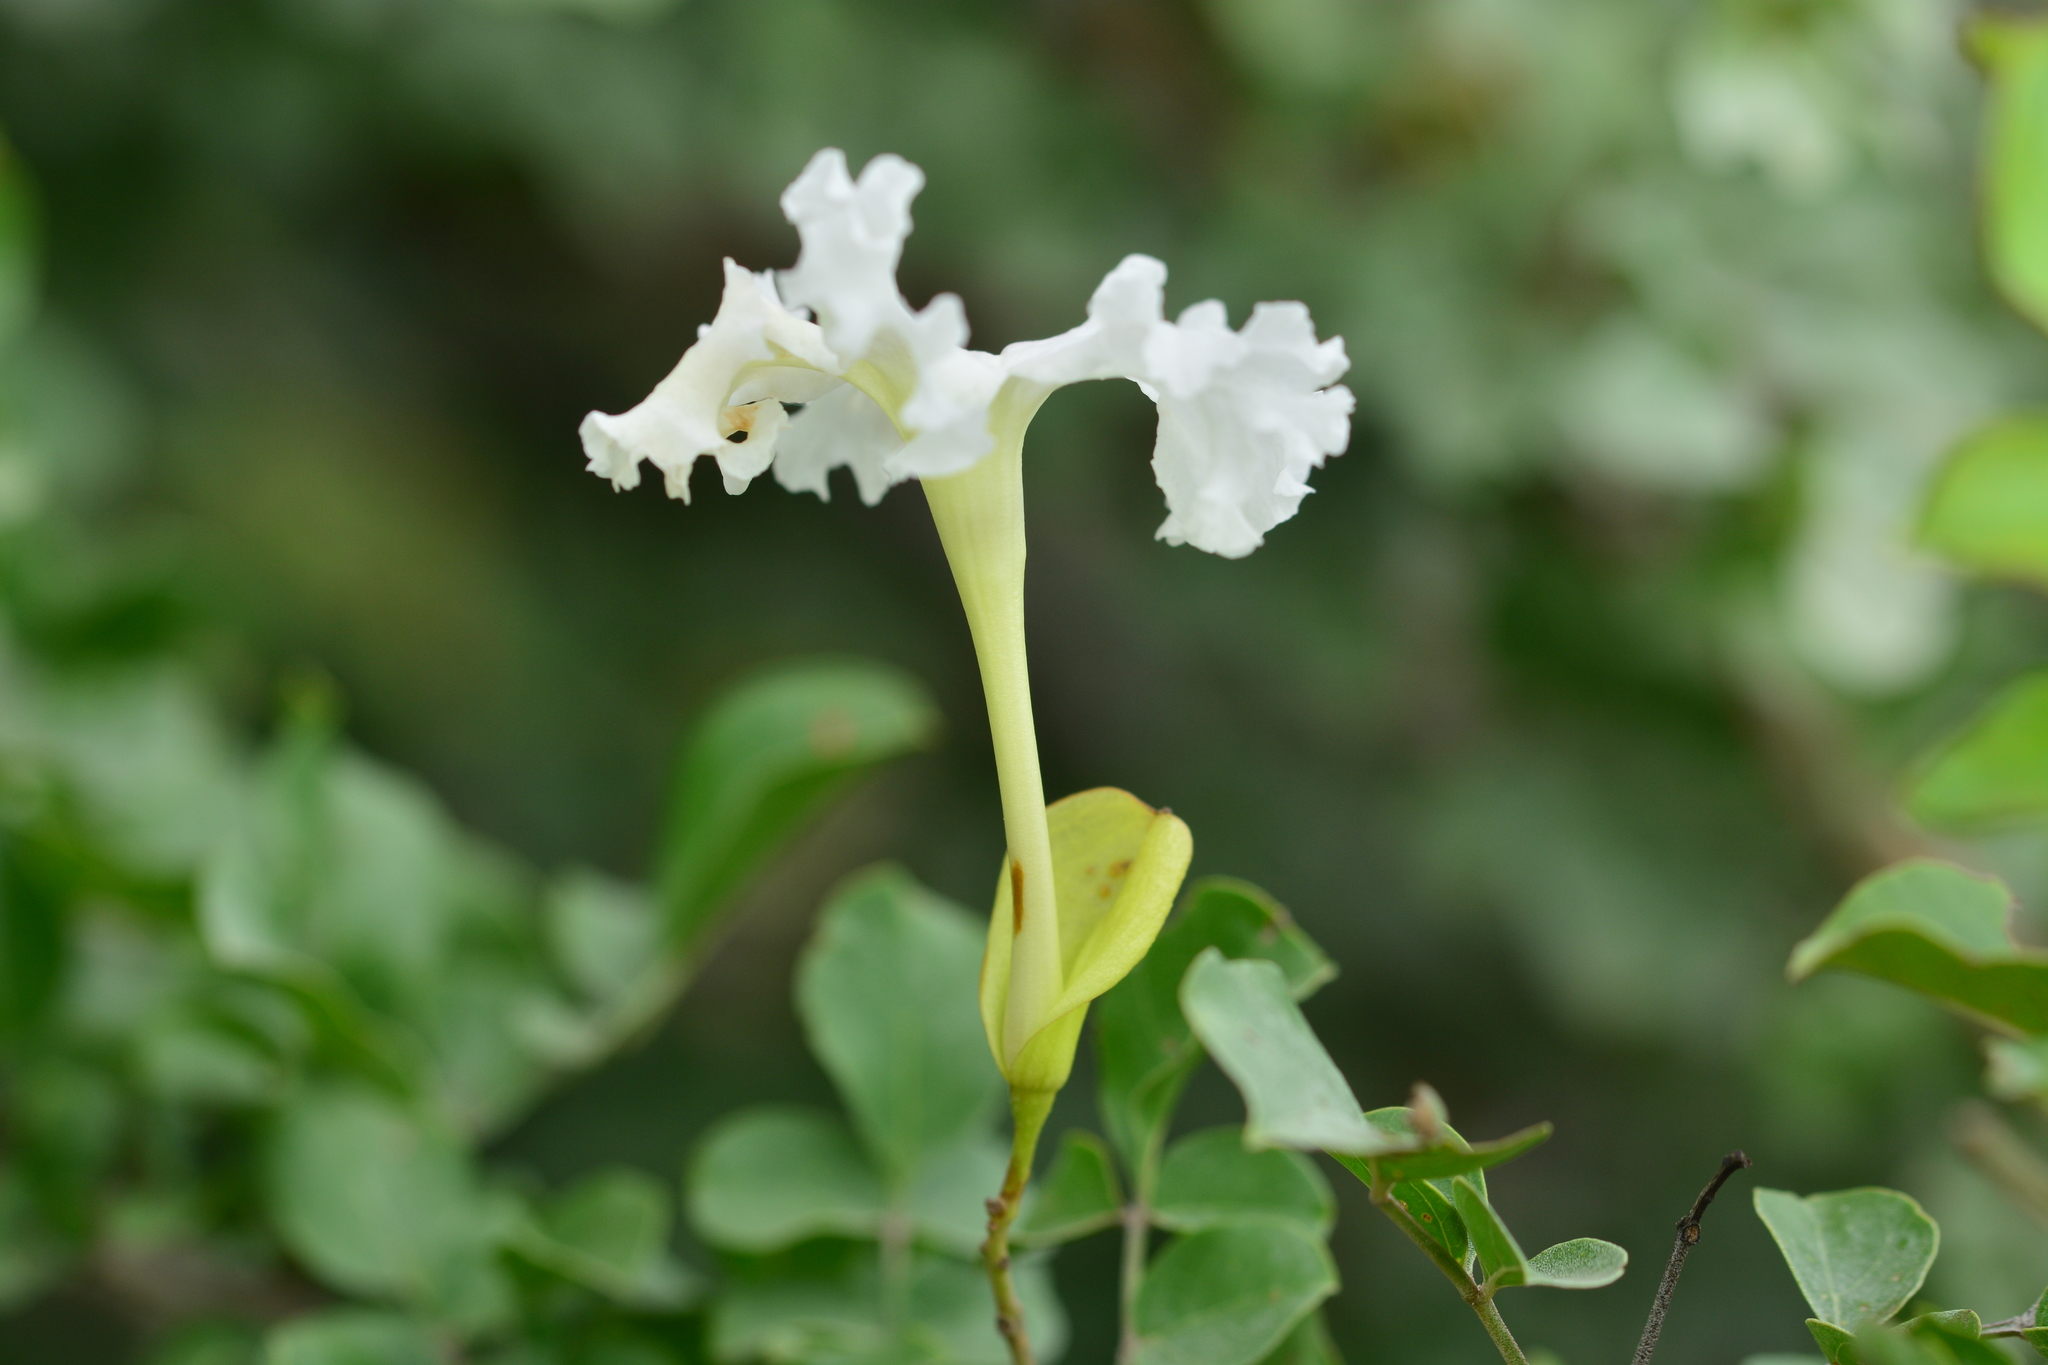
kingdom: Plantae
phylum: Tracheophyta
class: Magnoliopsida
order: Lamiales
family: Bignoniaceae
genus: Dolichandrone
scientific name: Dolichandrone falcata
